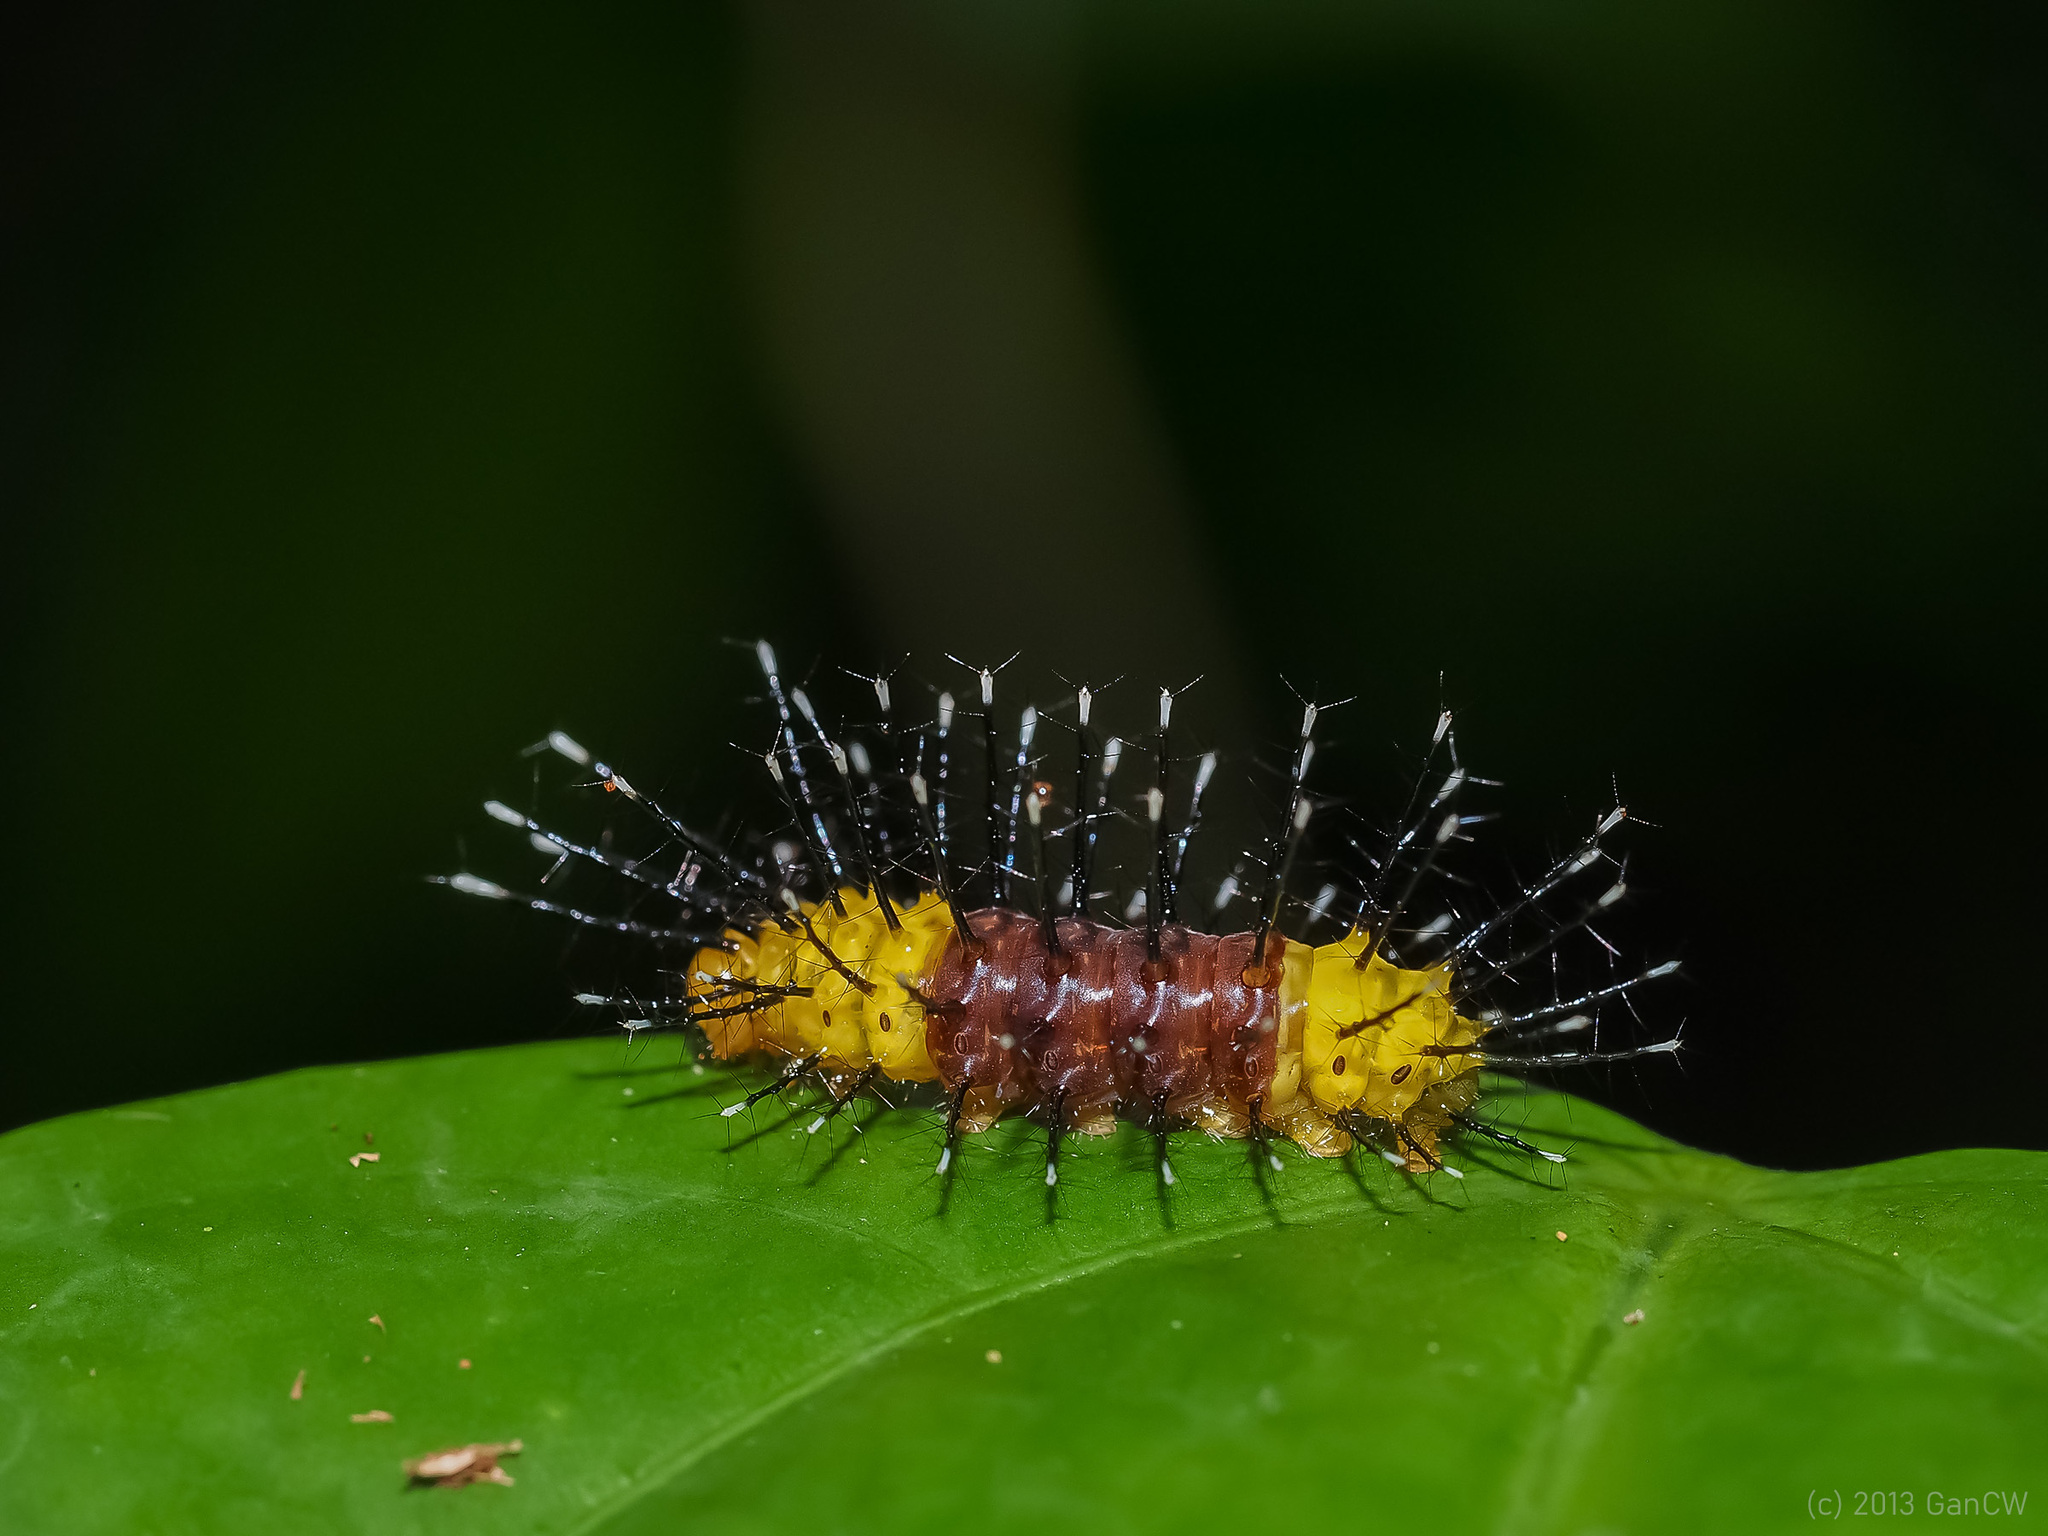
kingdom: Animalia
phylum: Arthropoda
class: Insecta
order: Lepidoptera
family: Nymphalidae
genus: Cirrochroa
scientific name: Cirrochroa orissa
